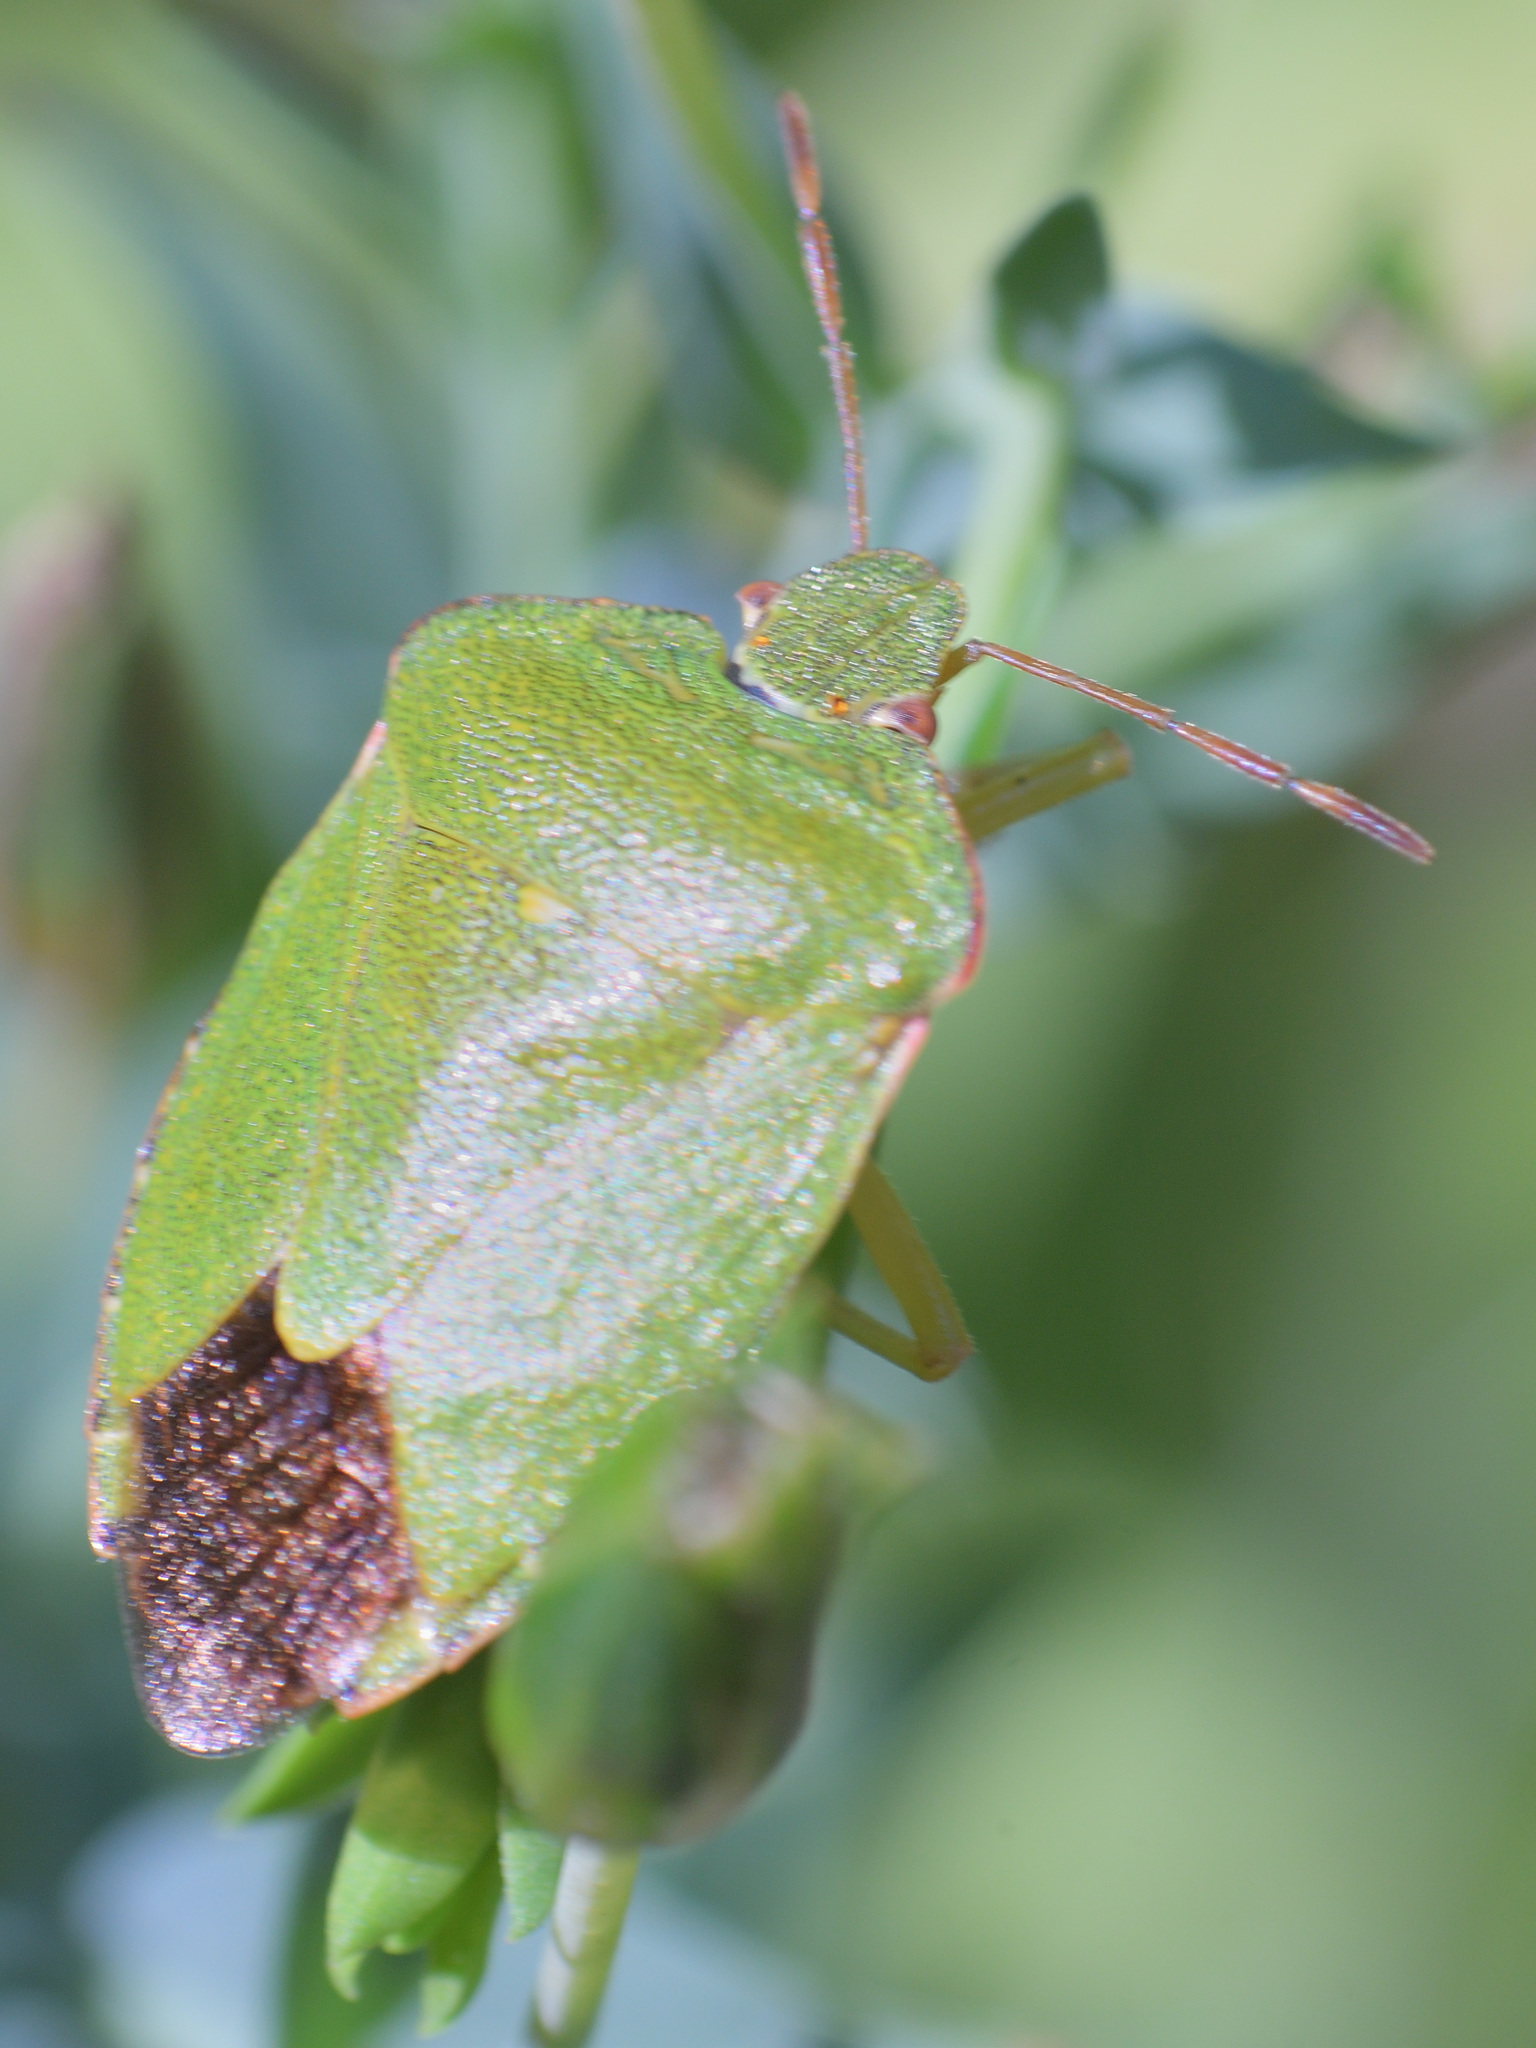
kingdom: Animalia
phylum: Arthropoda
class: Insecta
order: Hemiptera
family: Pentatomidae
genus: Palomena
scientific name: Palomena prasina
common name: Green shieldbug
